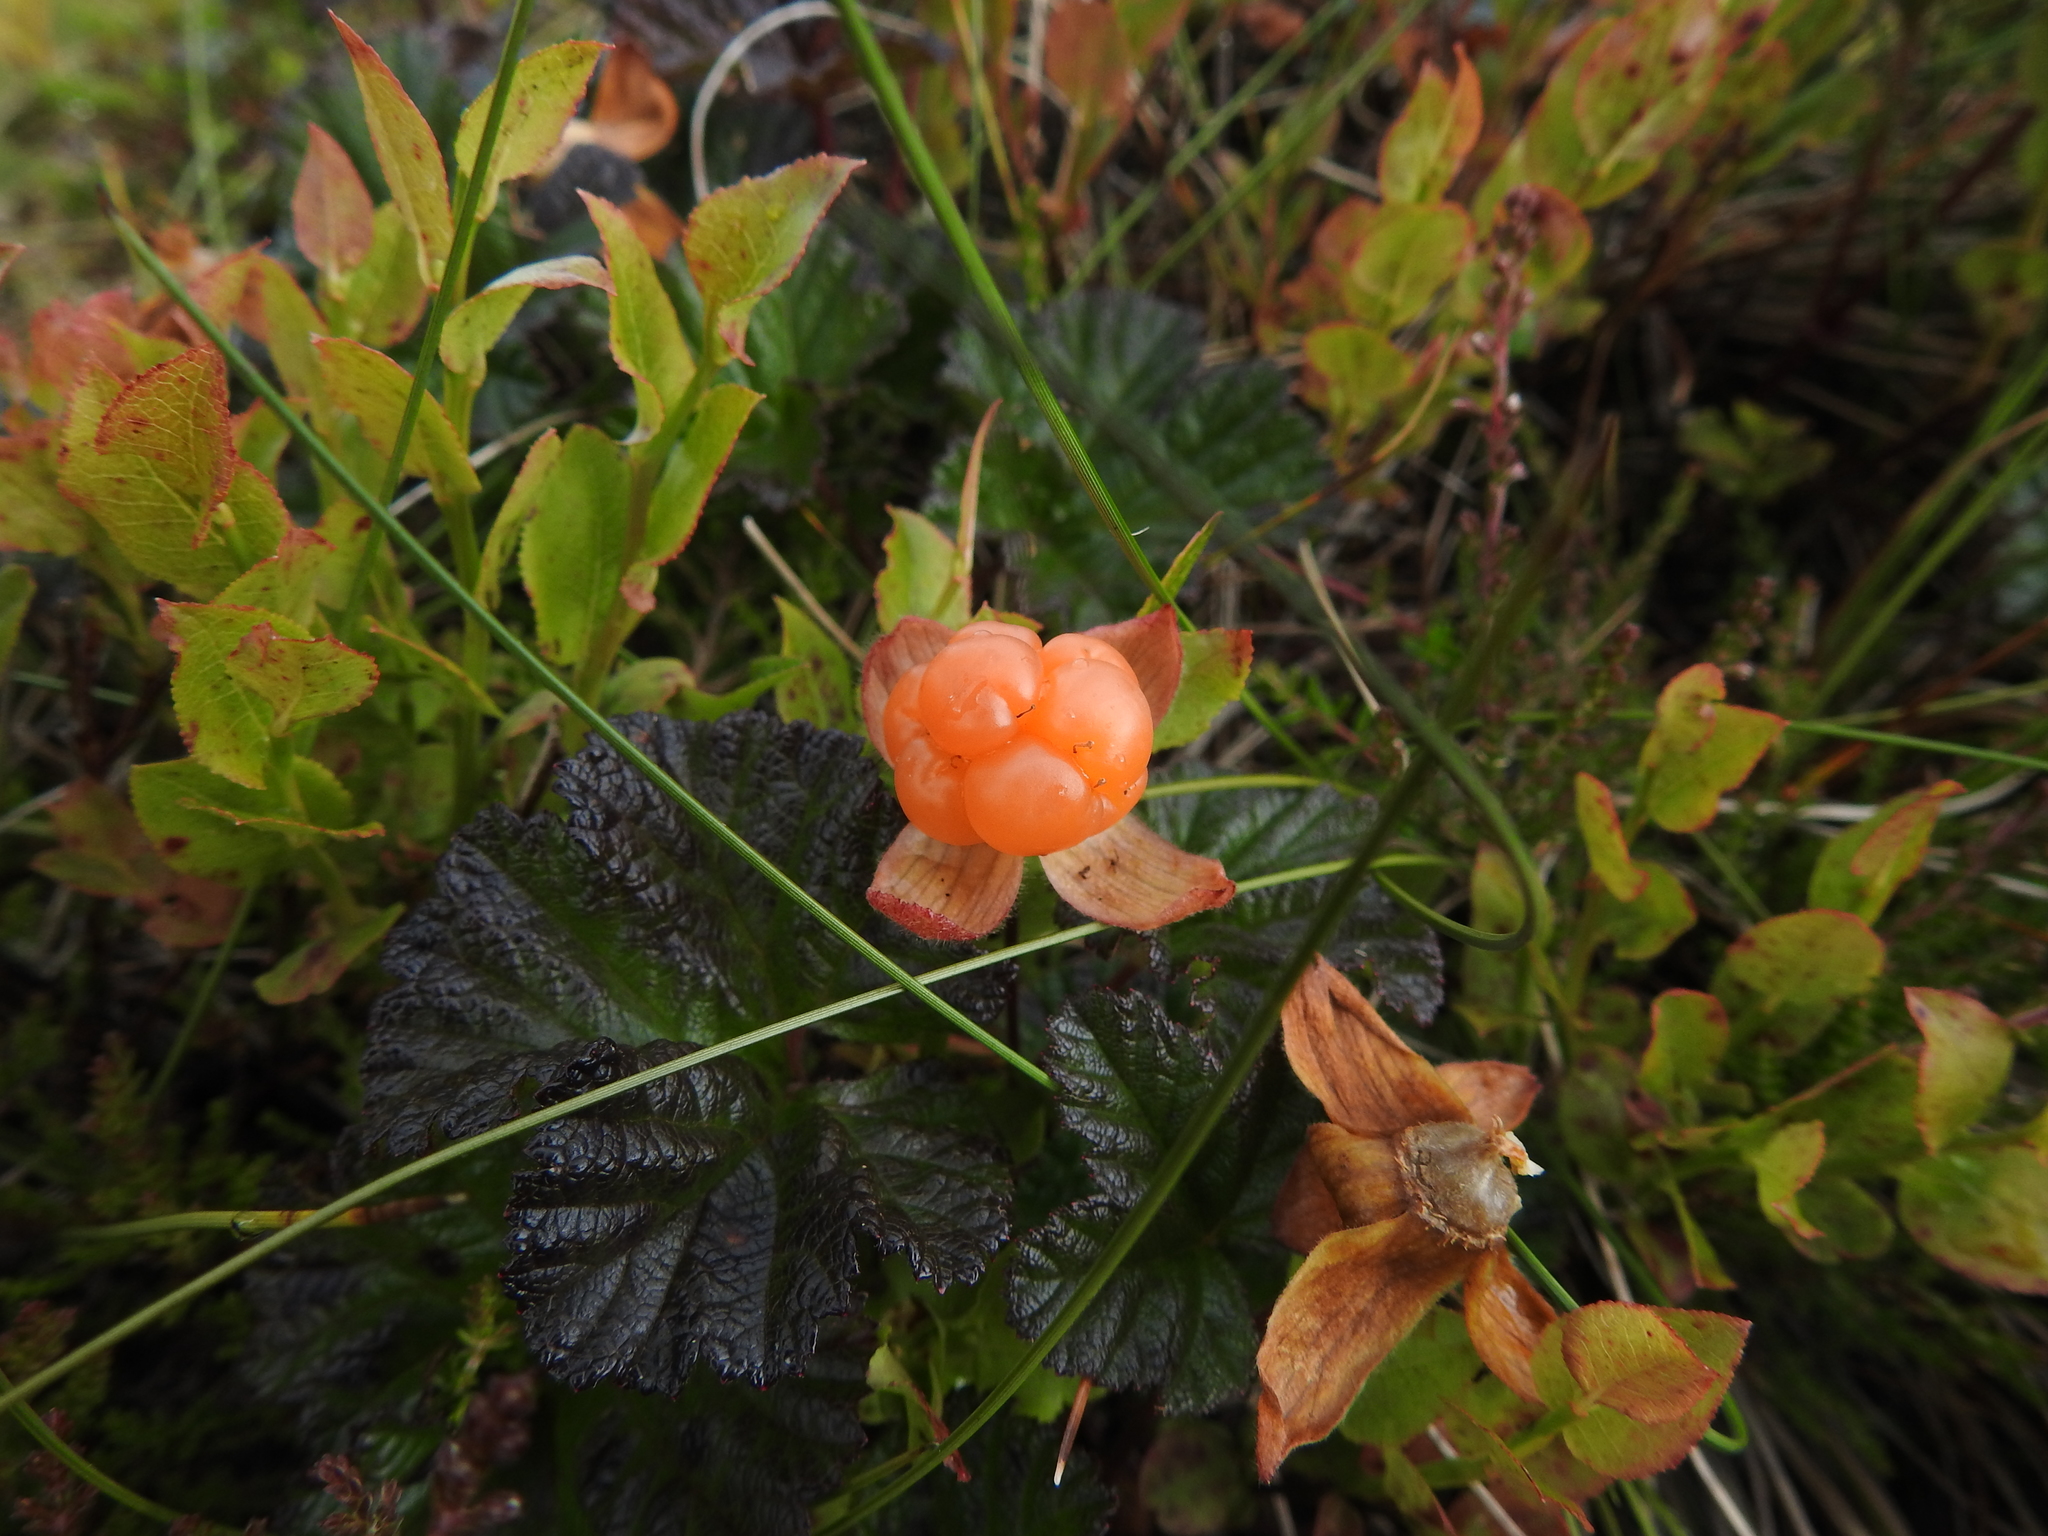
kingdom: Plantae
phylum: Tracheophyta
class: Magnoliopsida
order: Rosales
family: Rosaceae
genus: Rubus
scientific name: Rubus chamaemorus
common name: Cloudberry
